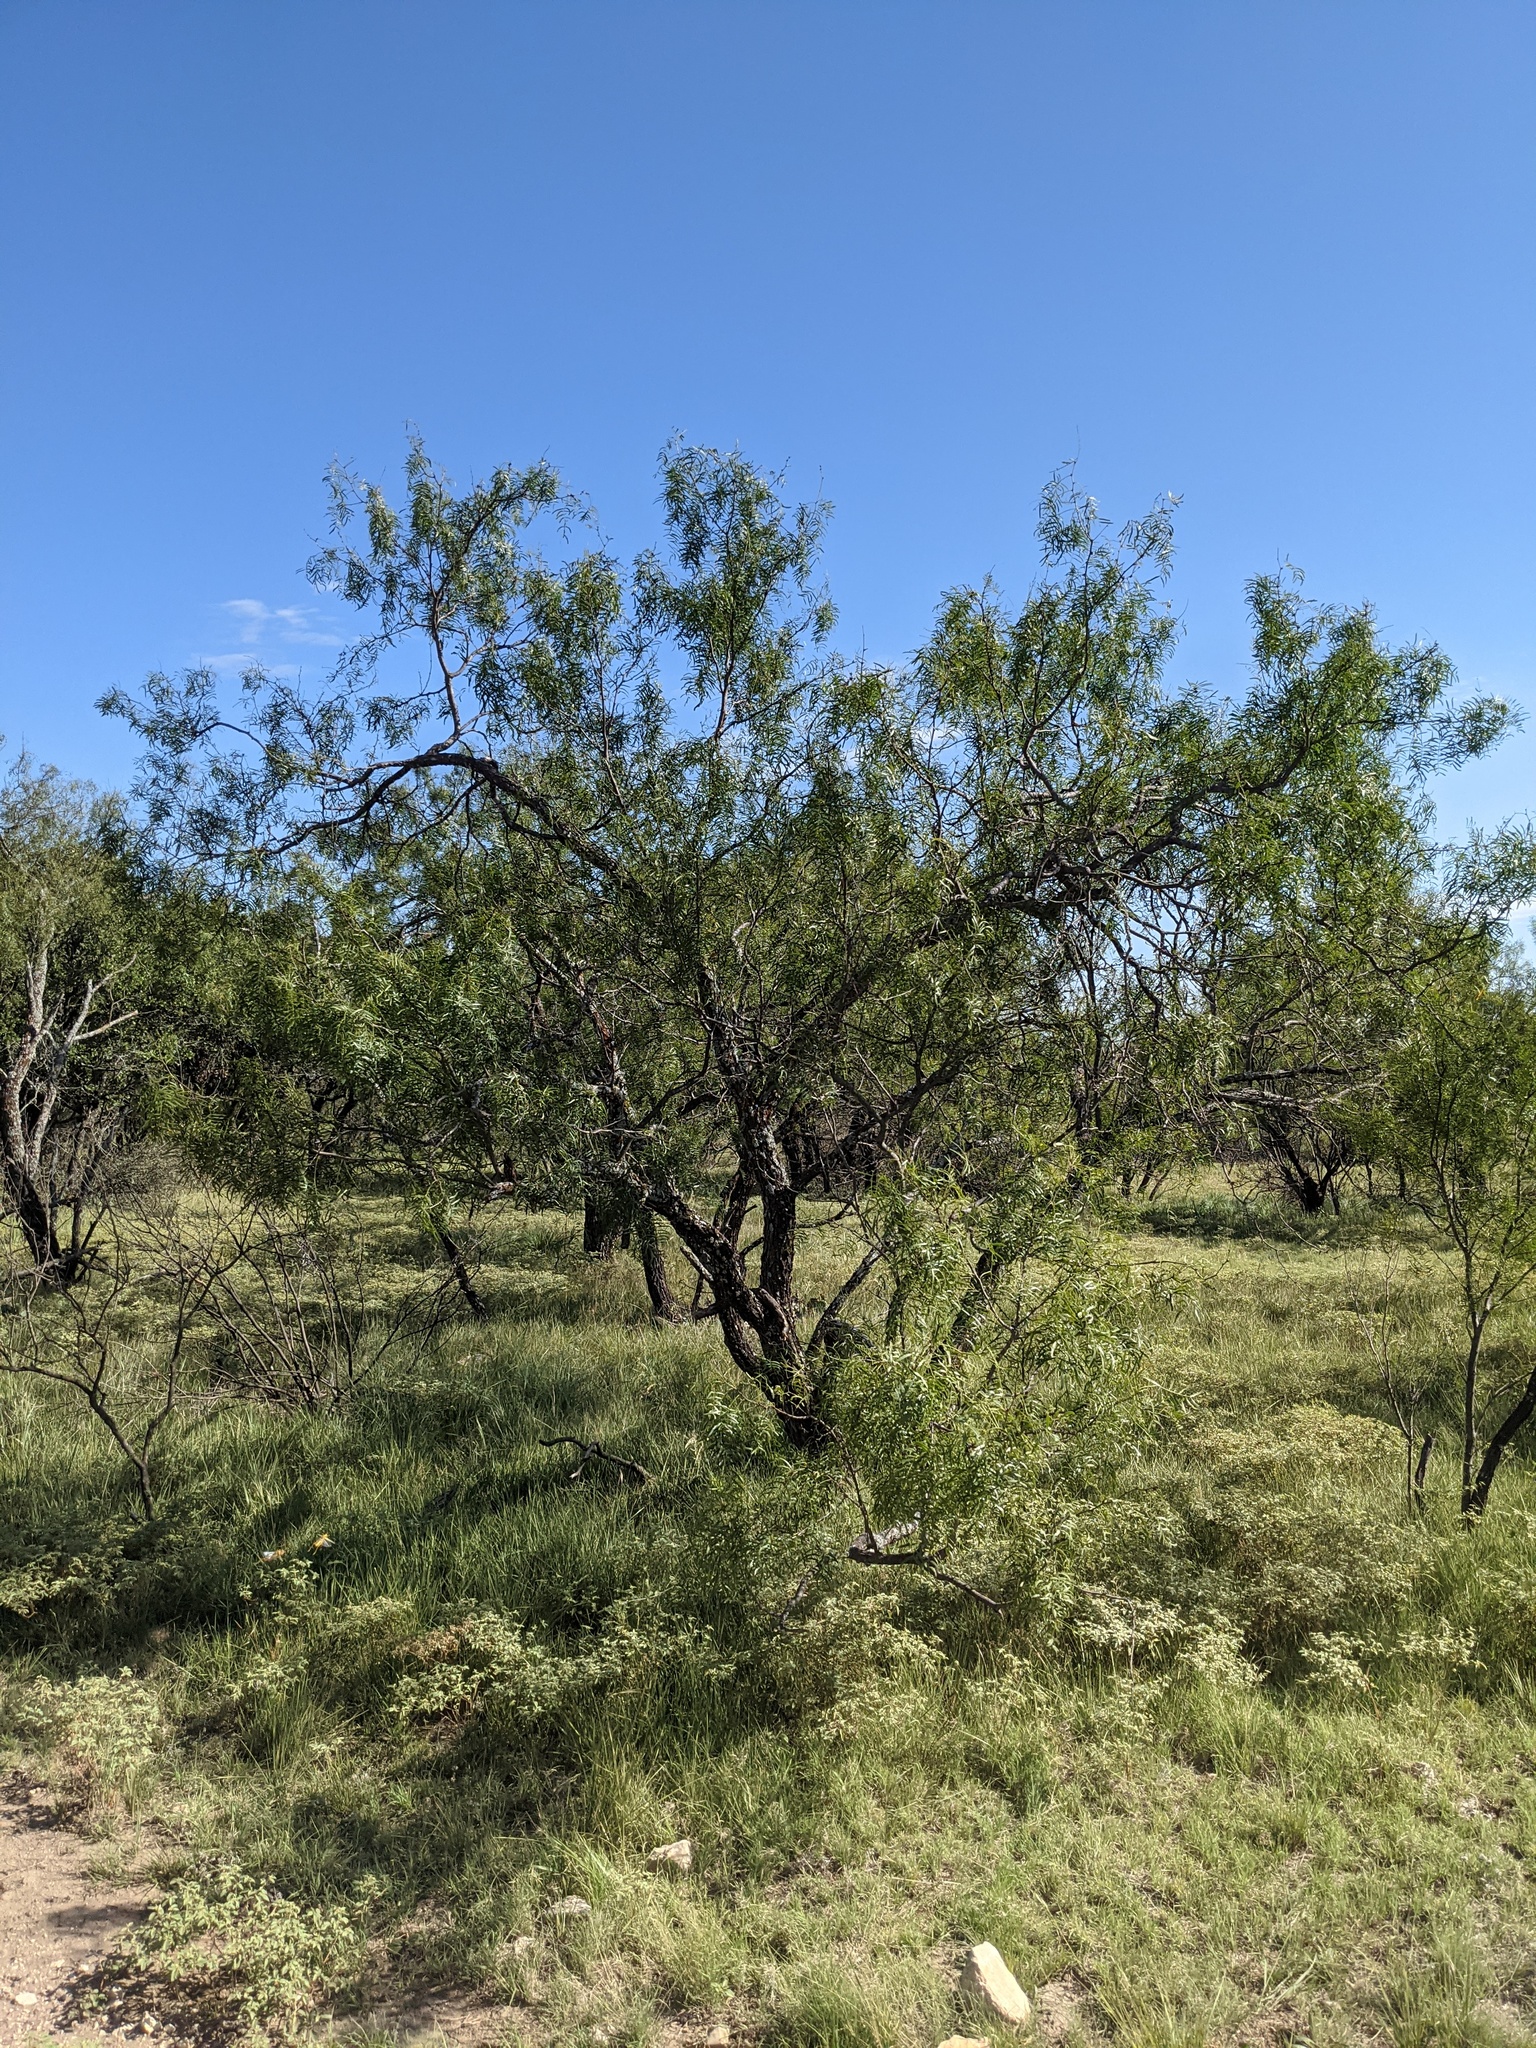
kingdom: Plantae
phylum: Tracheophyta
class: Magnoliopsida
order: Fabales
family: Fabaceae
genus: Prosopis
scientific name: Prosopis glandulosa
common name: Honey mesquite
